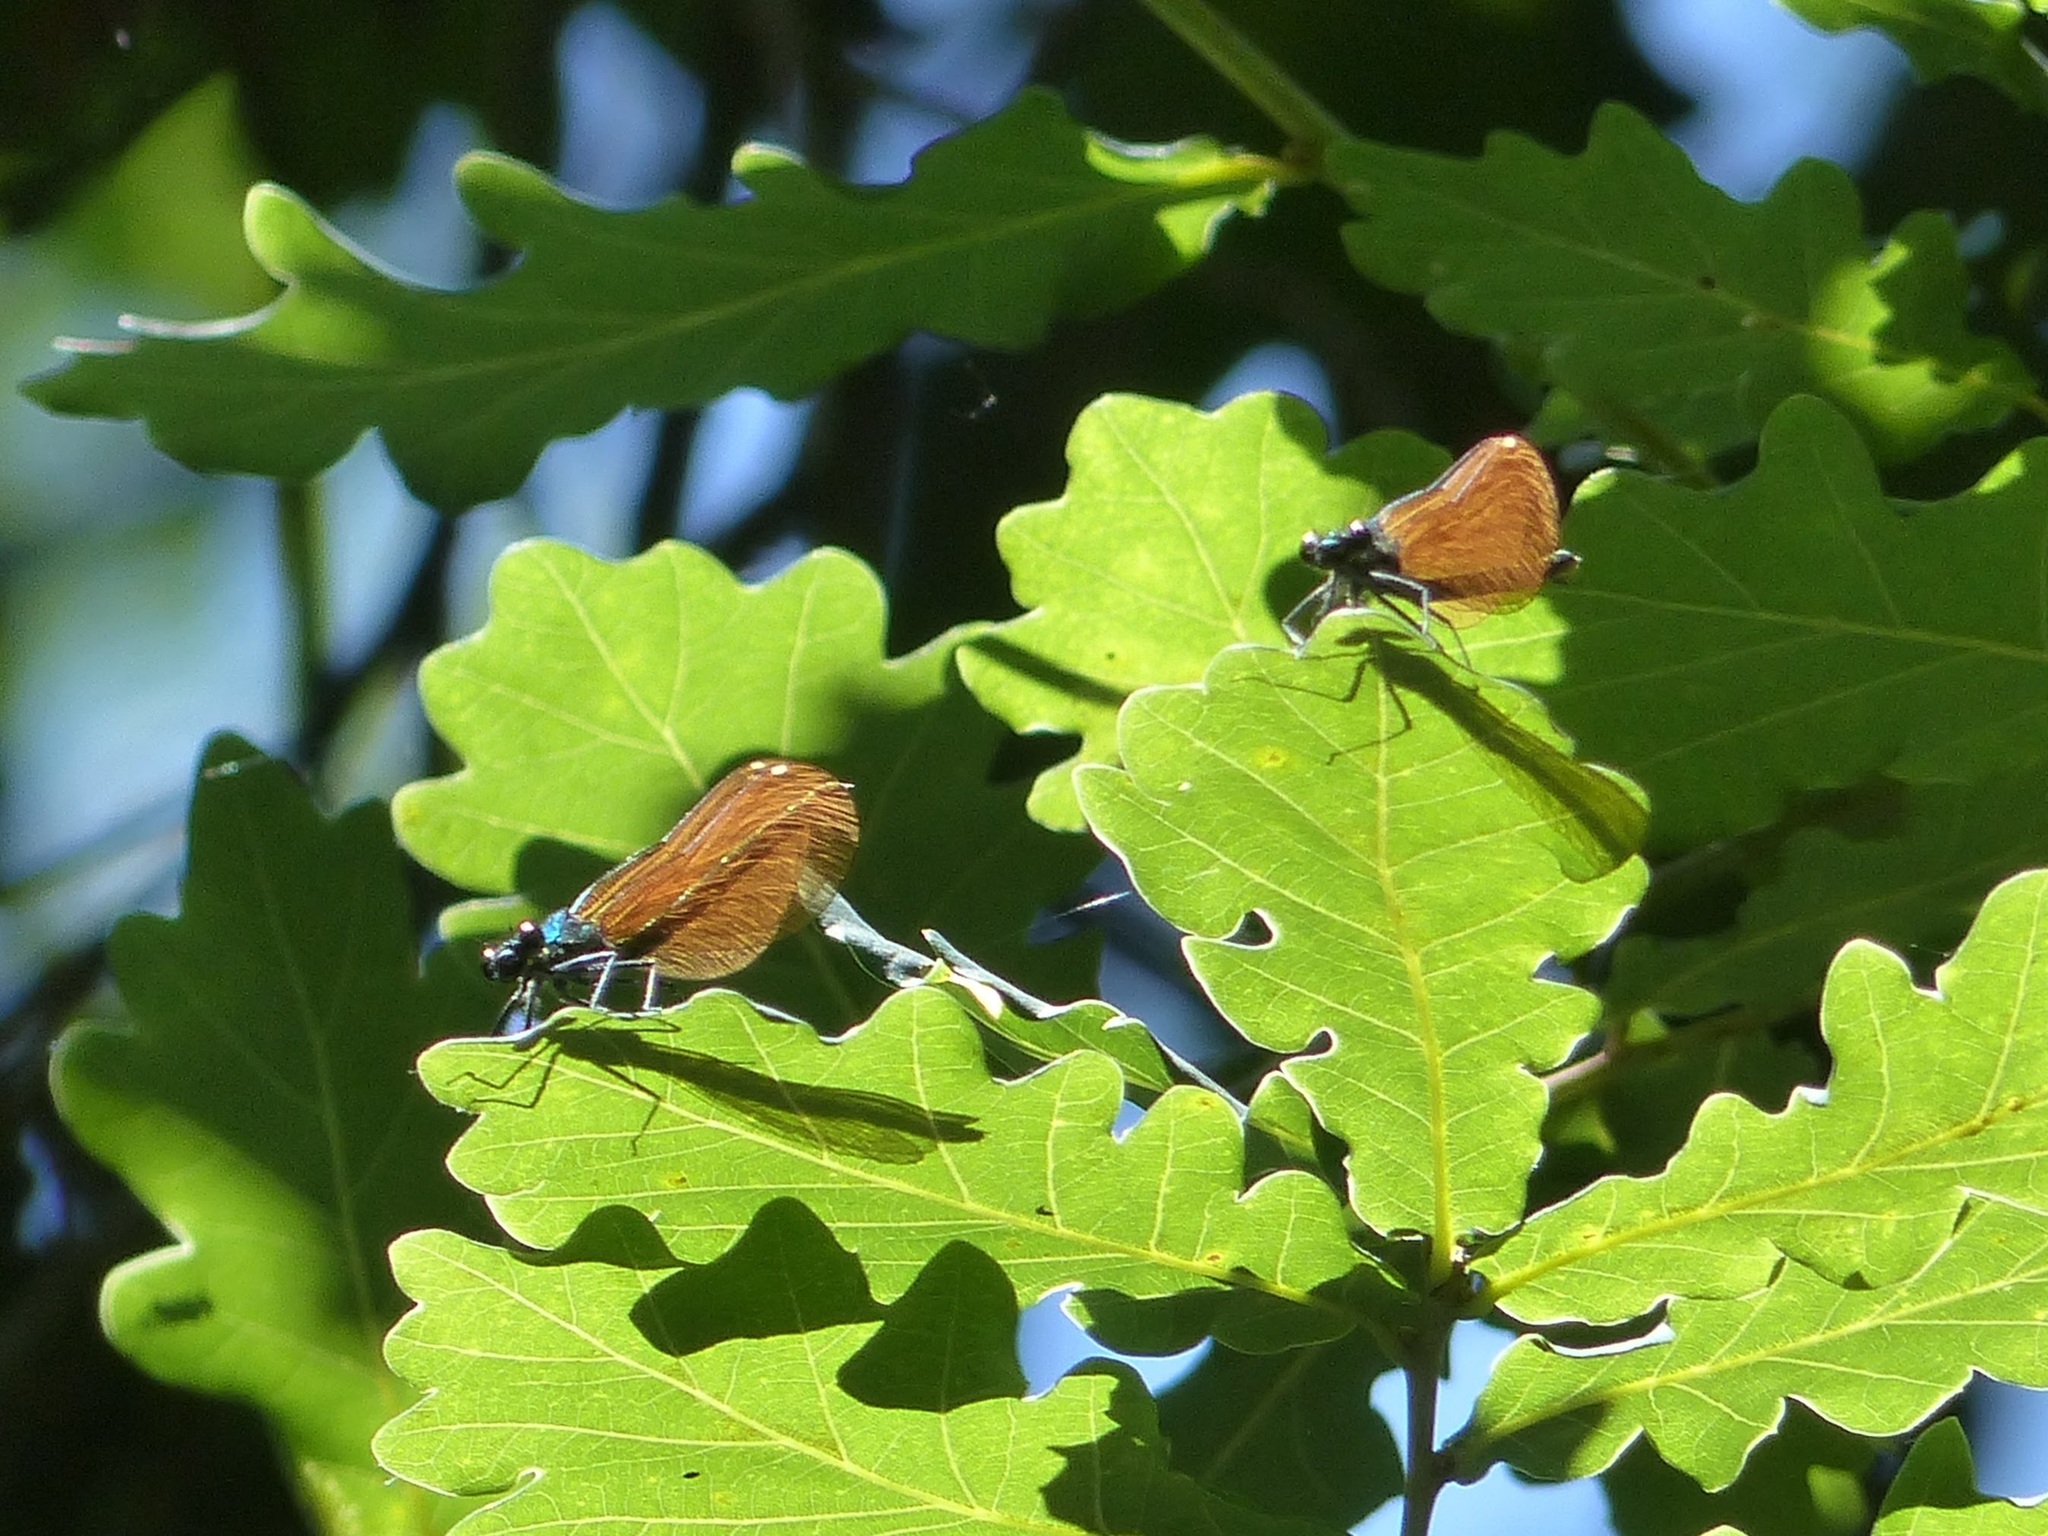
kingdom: Animalia
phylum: Arthropoda
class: Insecta
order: Odonata
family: Calopterygidae
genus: Calopteryx
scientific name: Calopteryx virgo
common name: Beautiful demoiselle
